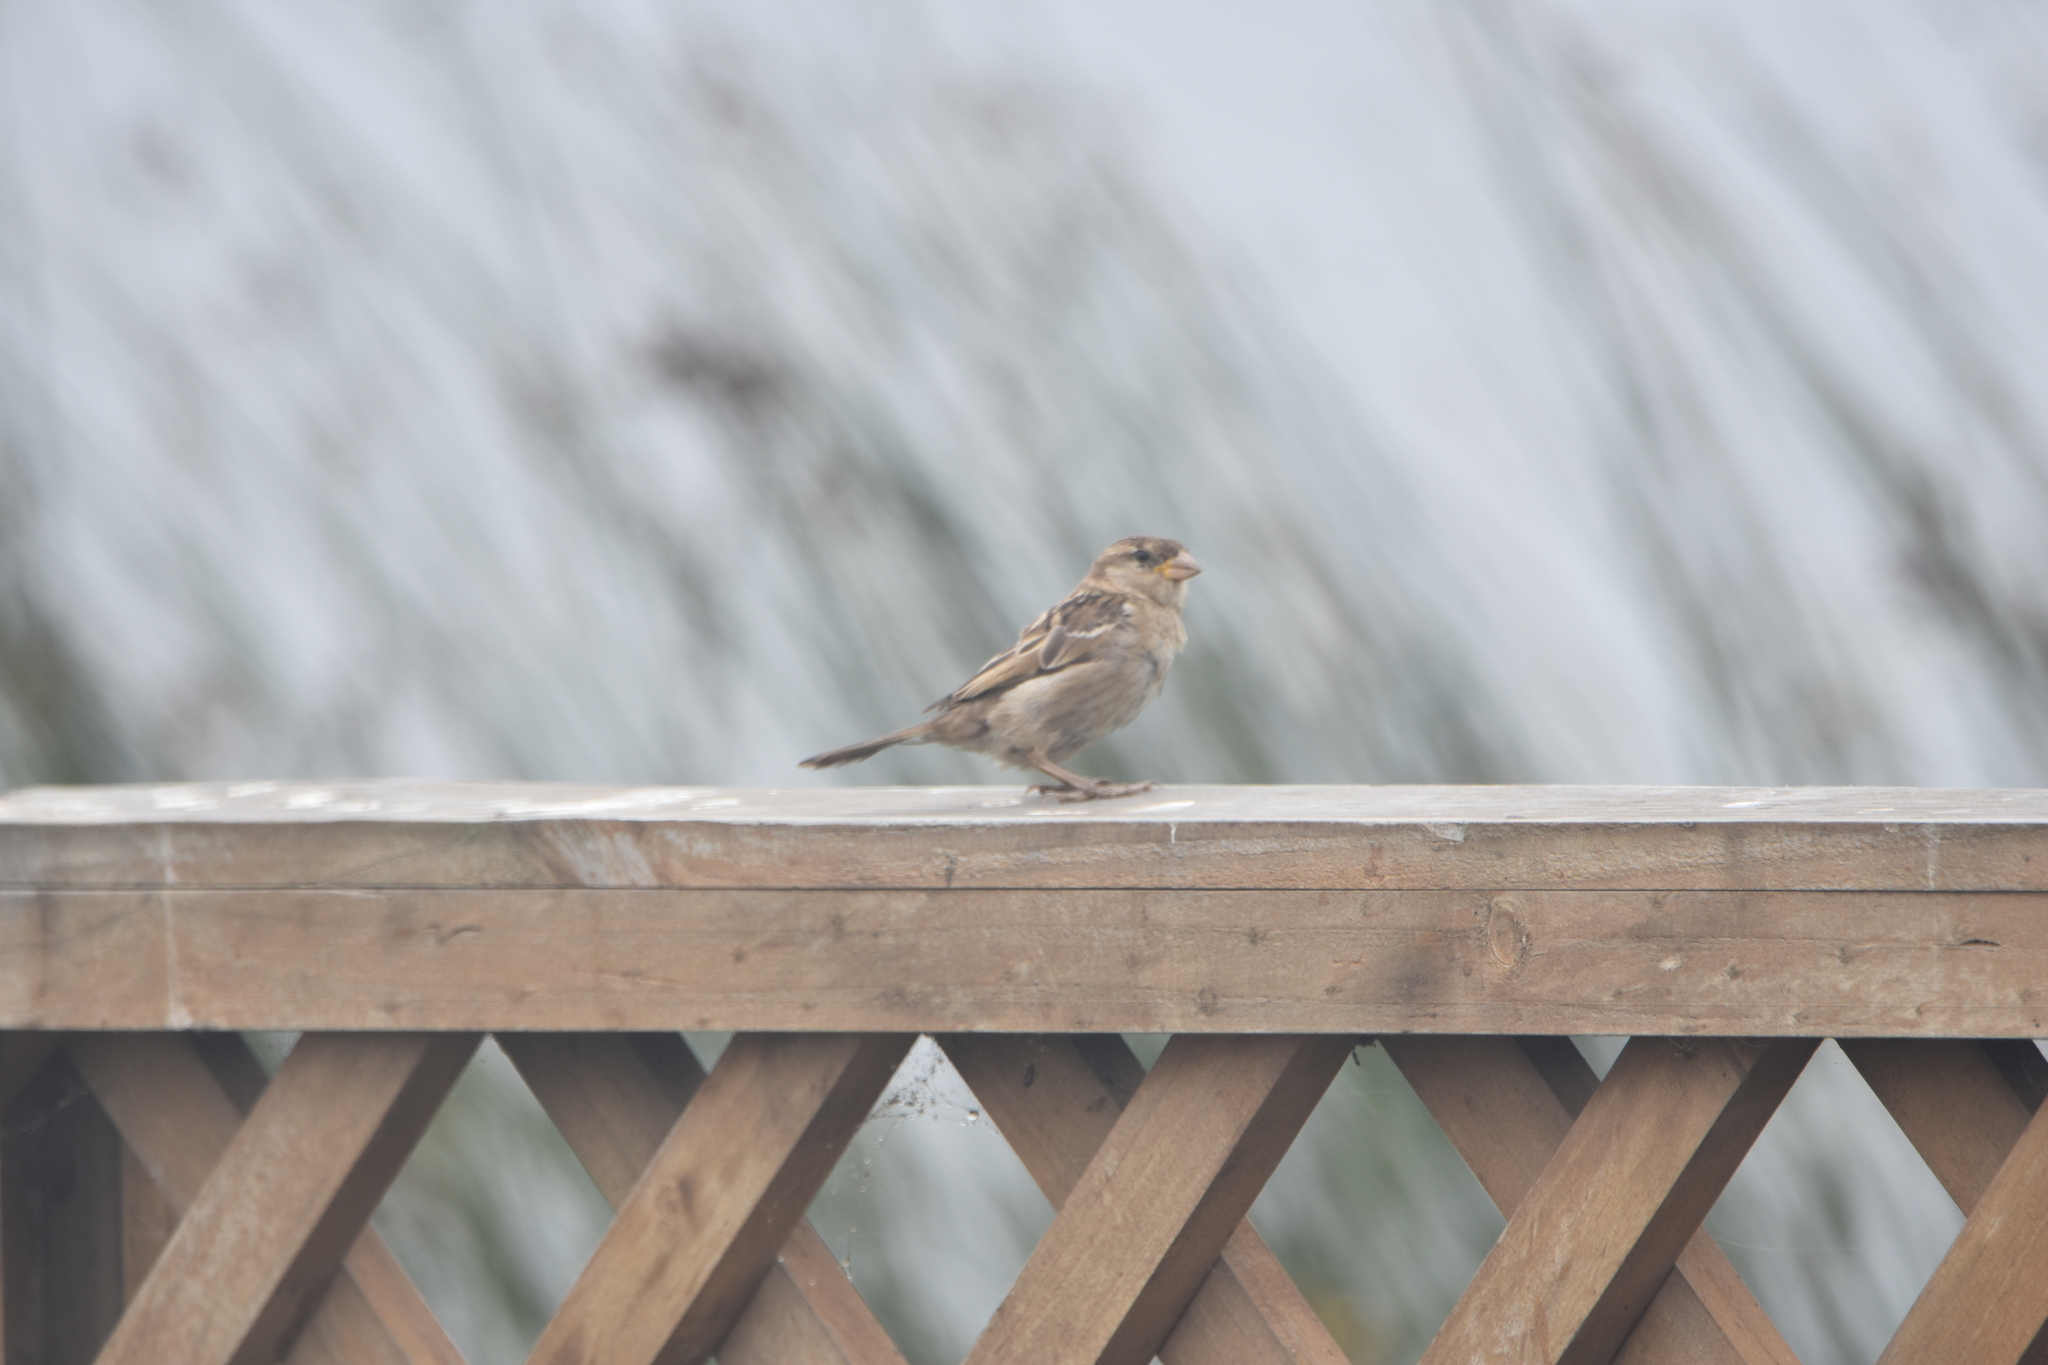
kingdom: Animalia
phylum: Chordata
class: Aves
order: Passeriformes
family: Passeridae
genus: Passer
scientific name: Passer domesticus
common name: House sparrow
